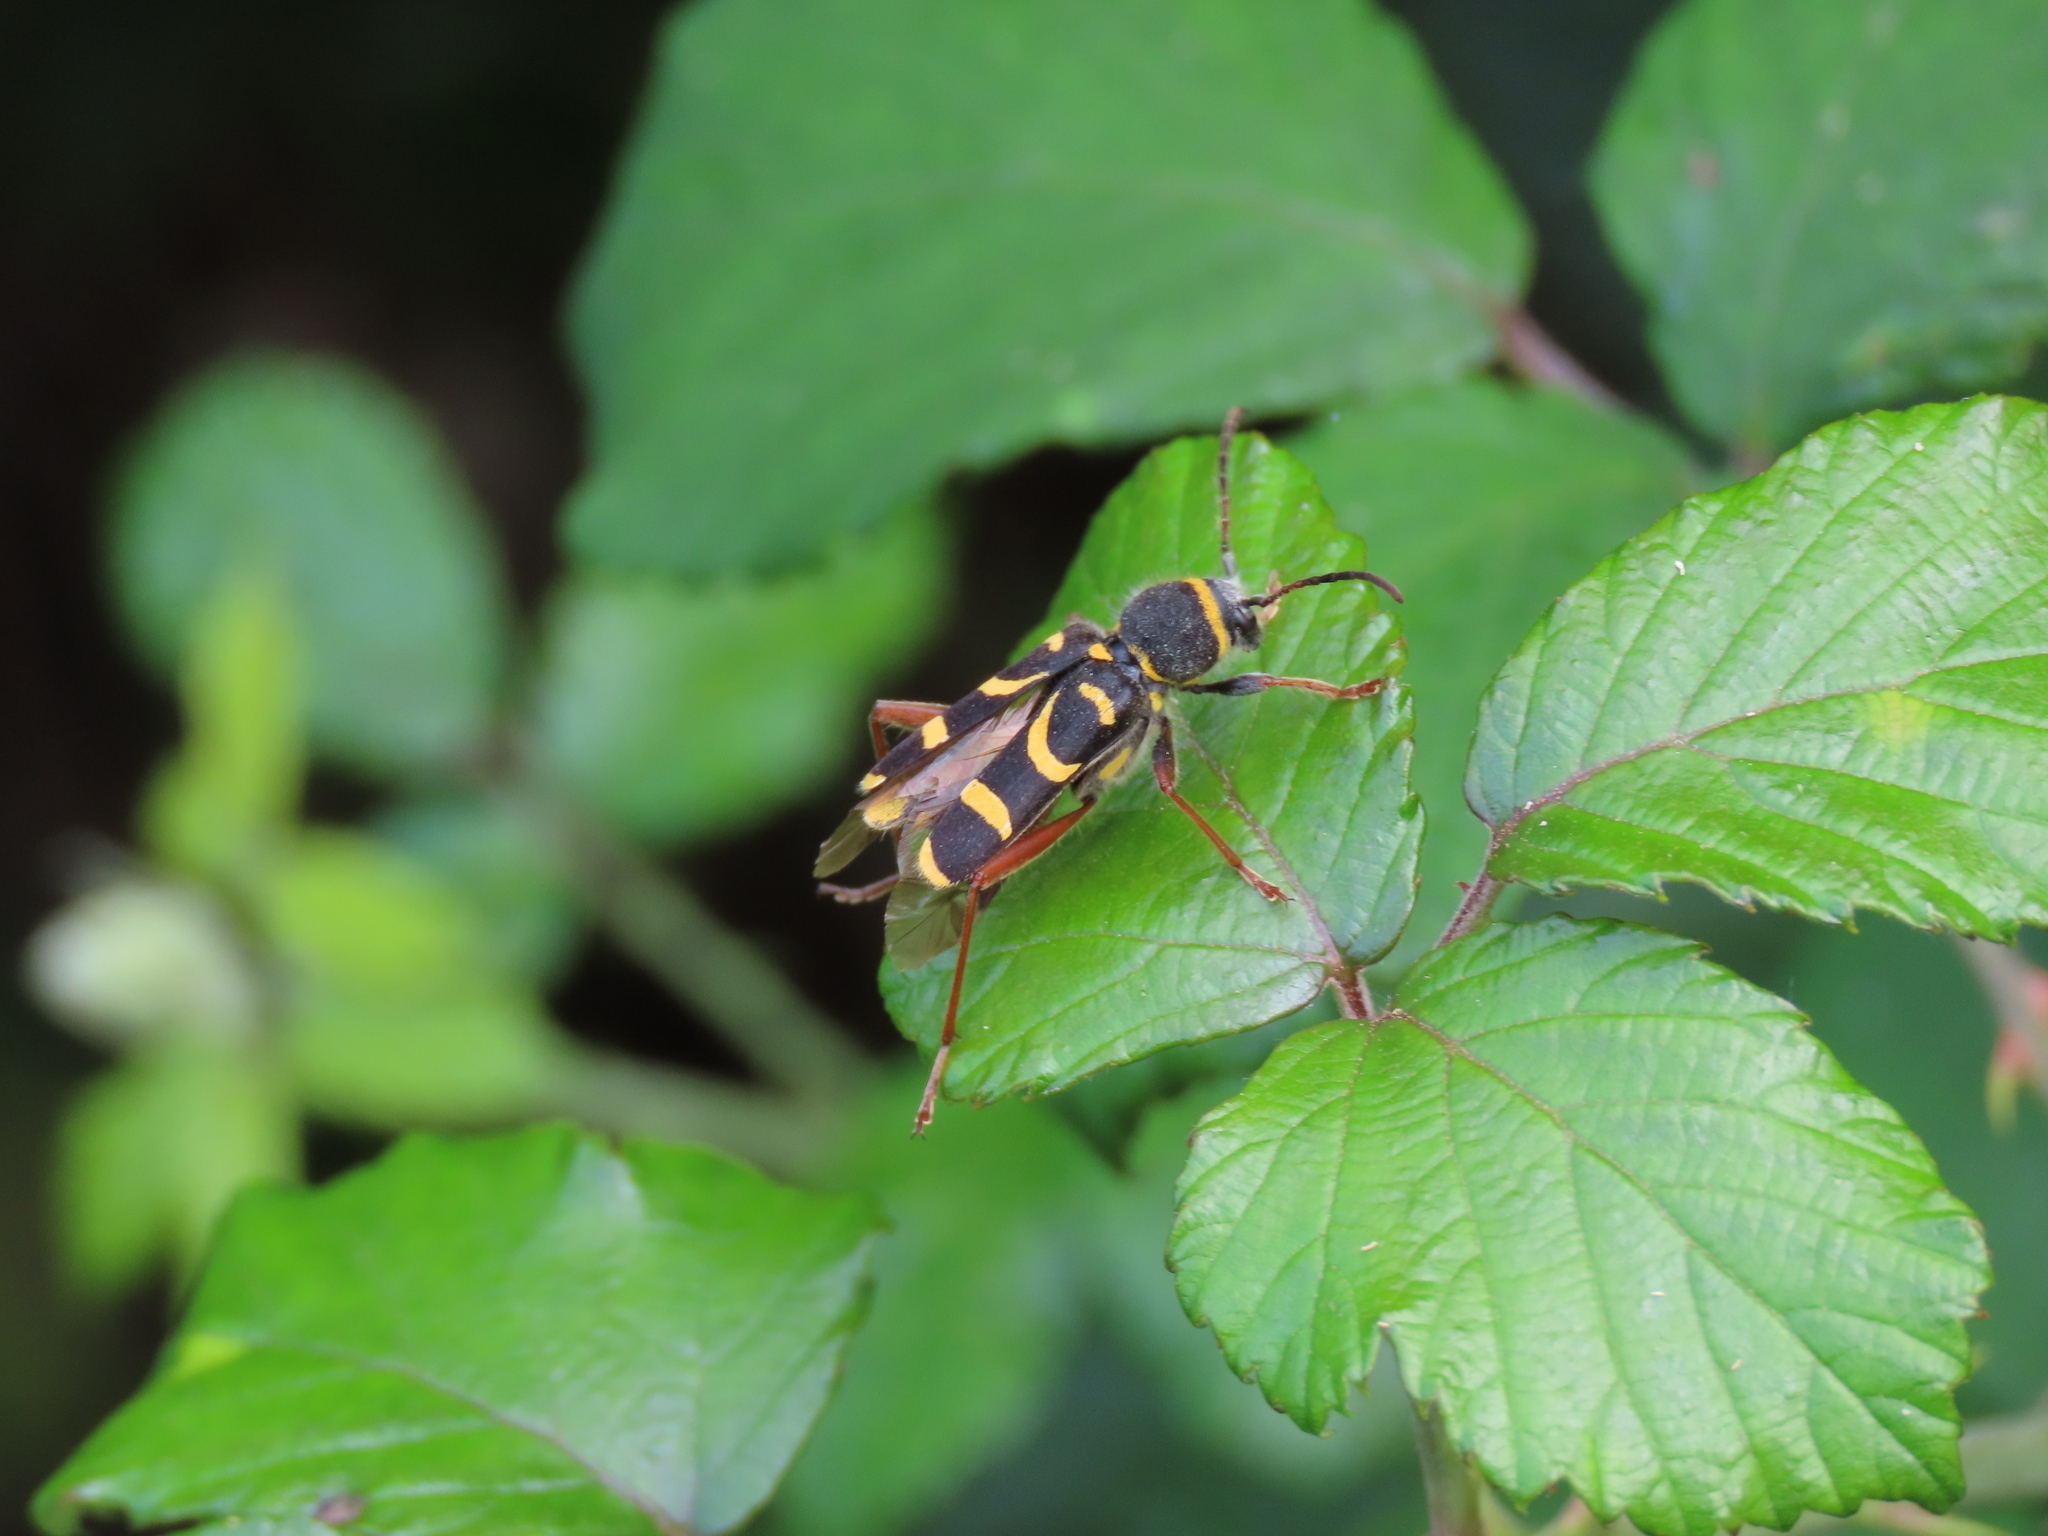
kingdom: Animalia
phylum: Arthropoda
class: Insecta
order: Coleoptera
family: Cerambycidae
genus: Clytus
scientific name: Clytus arietis
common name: Wasp beetle
